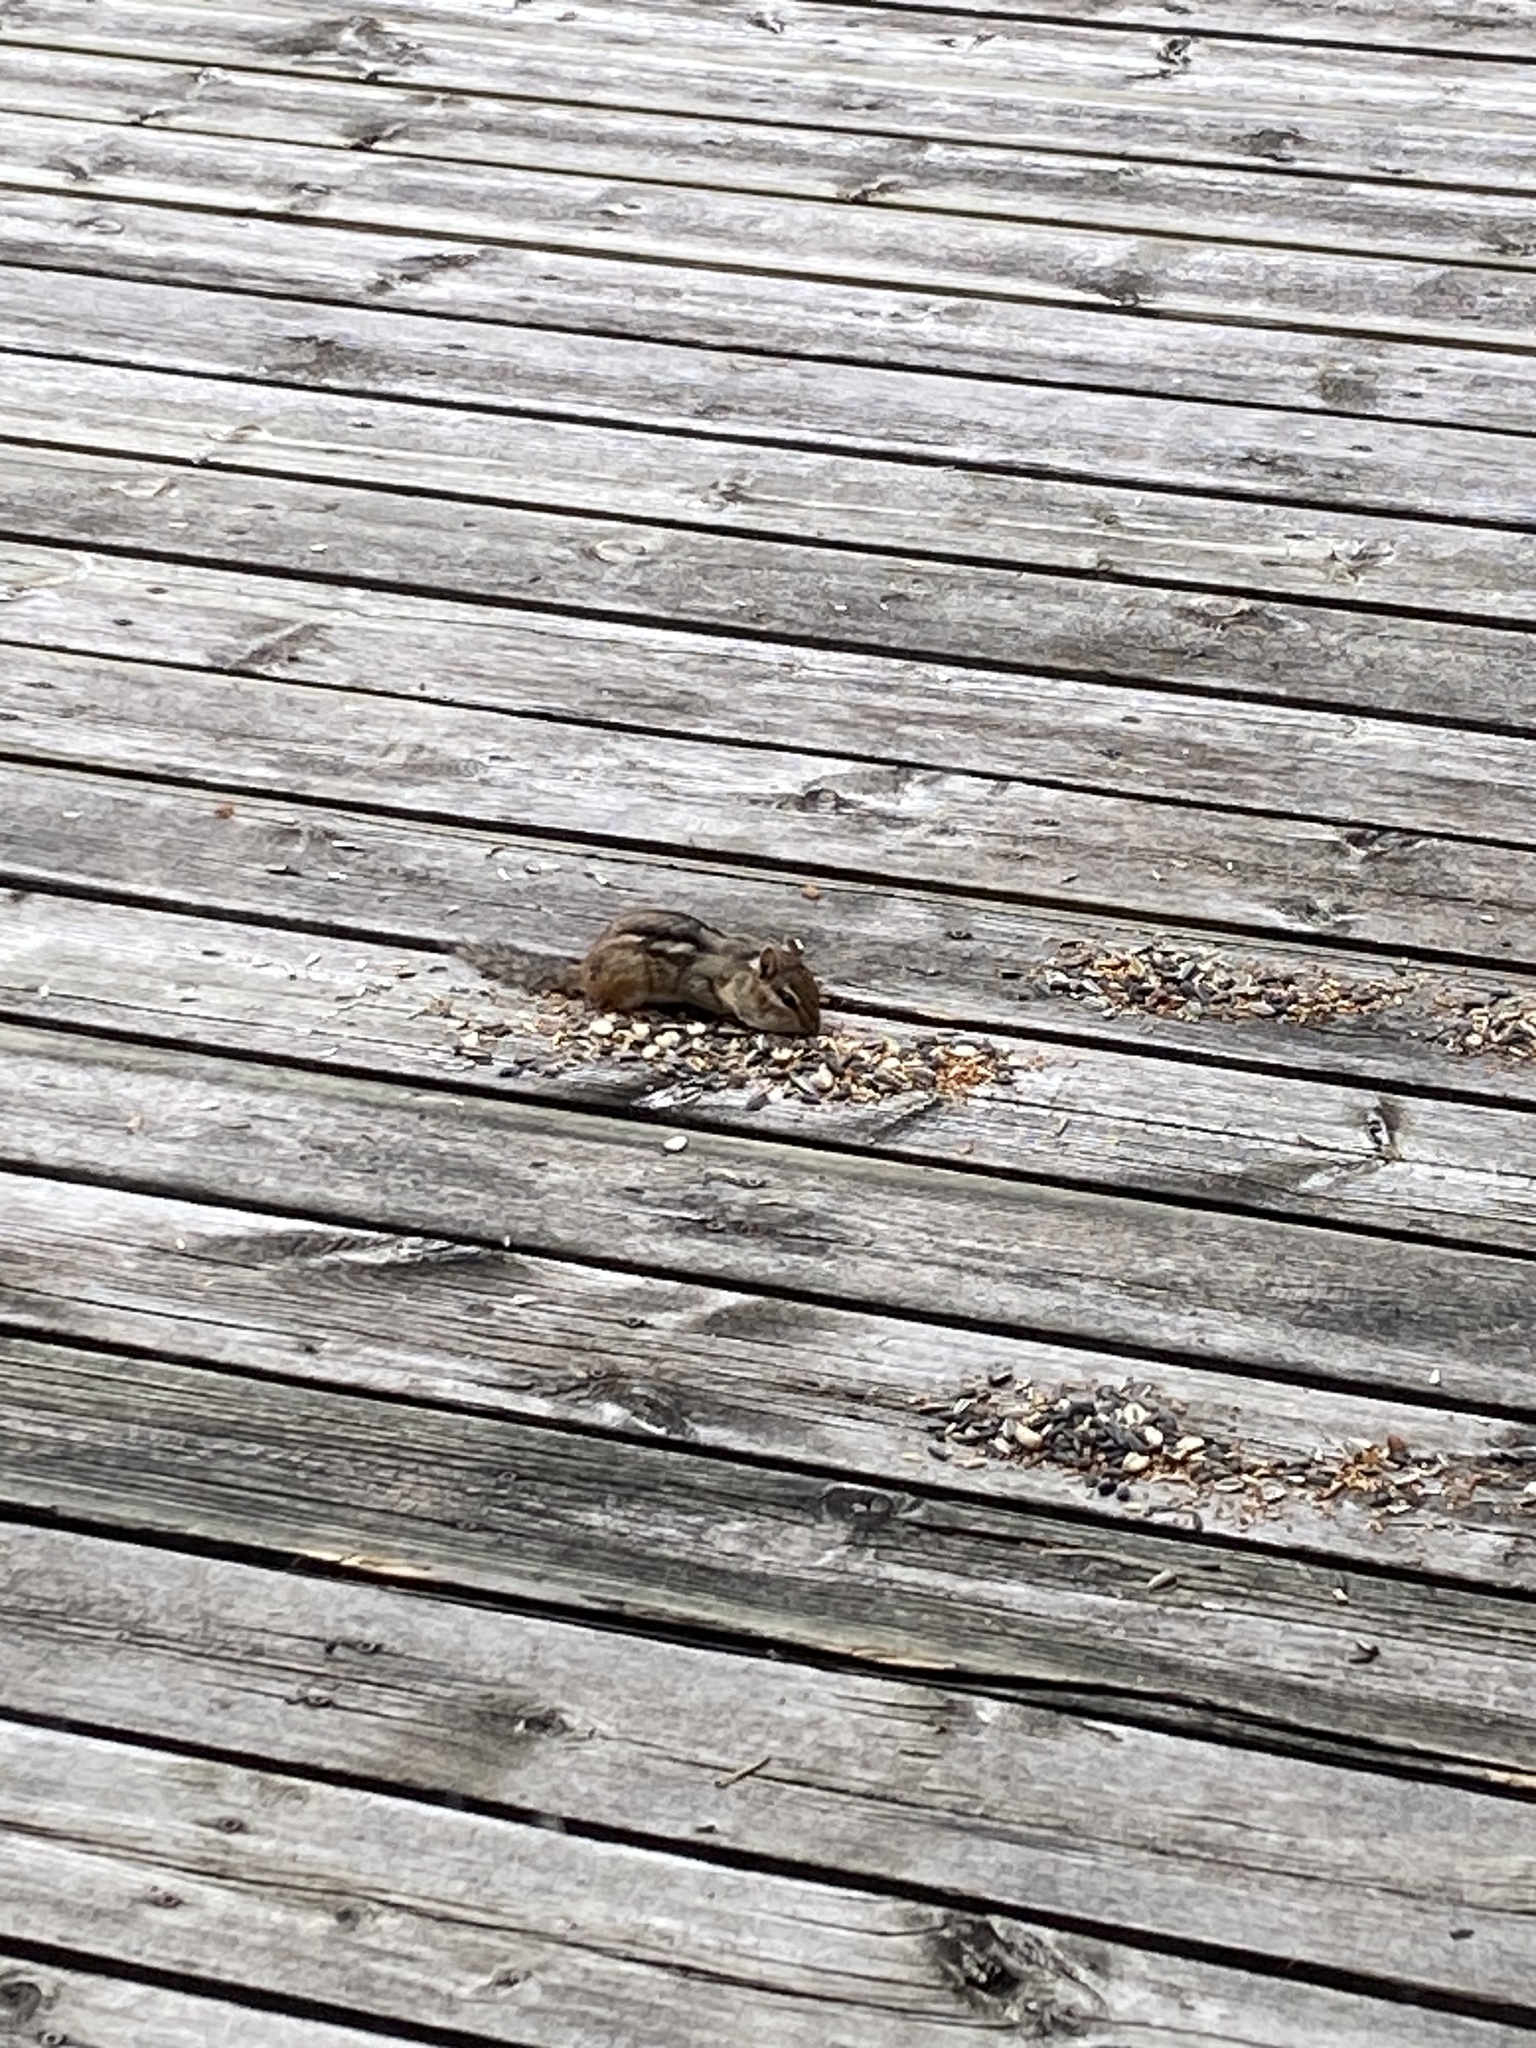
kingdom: Animalia
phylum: Chordata
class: Mammalia
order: Rodentia
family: Sciuridae
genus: Tamias
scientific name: Tamias striatus
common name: Eastern chipmunk
